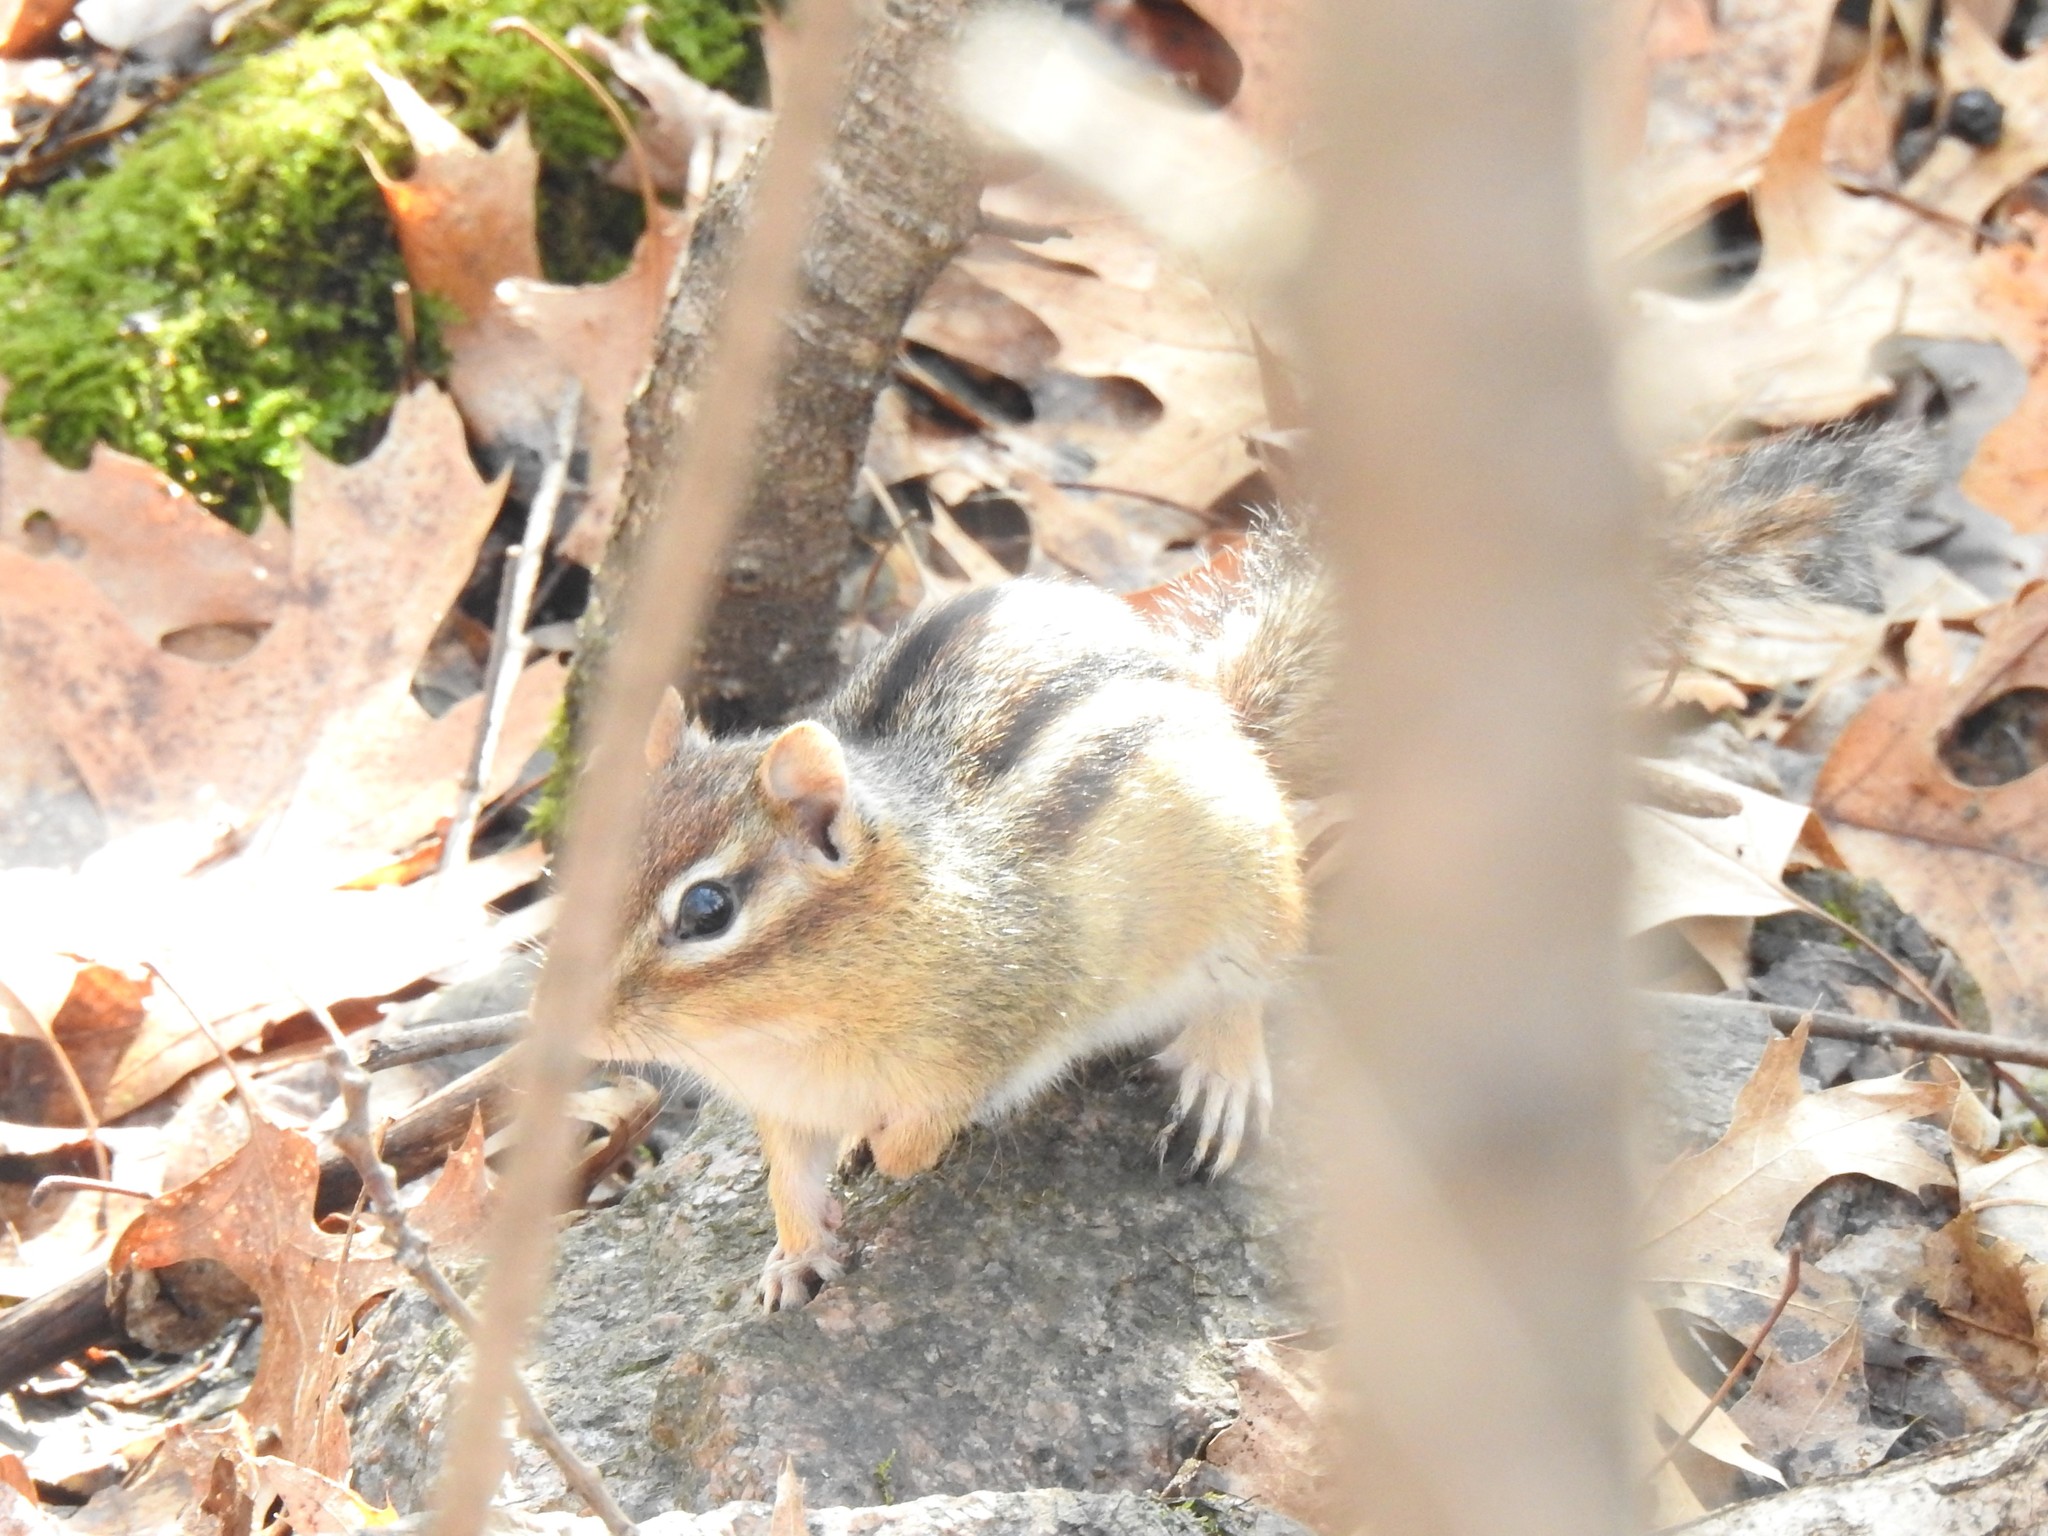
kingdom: Animalia
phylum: Chordata
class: Mammalia
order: Rodentia
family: Sciuridae
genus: Tamias
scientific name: Tamias striatus
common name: Eastern chipmunk
